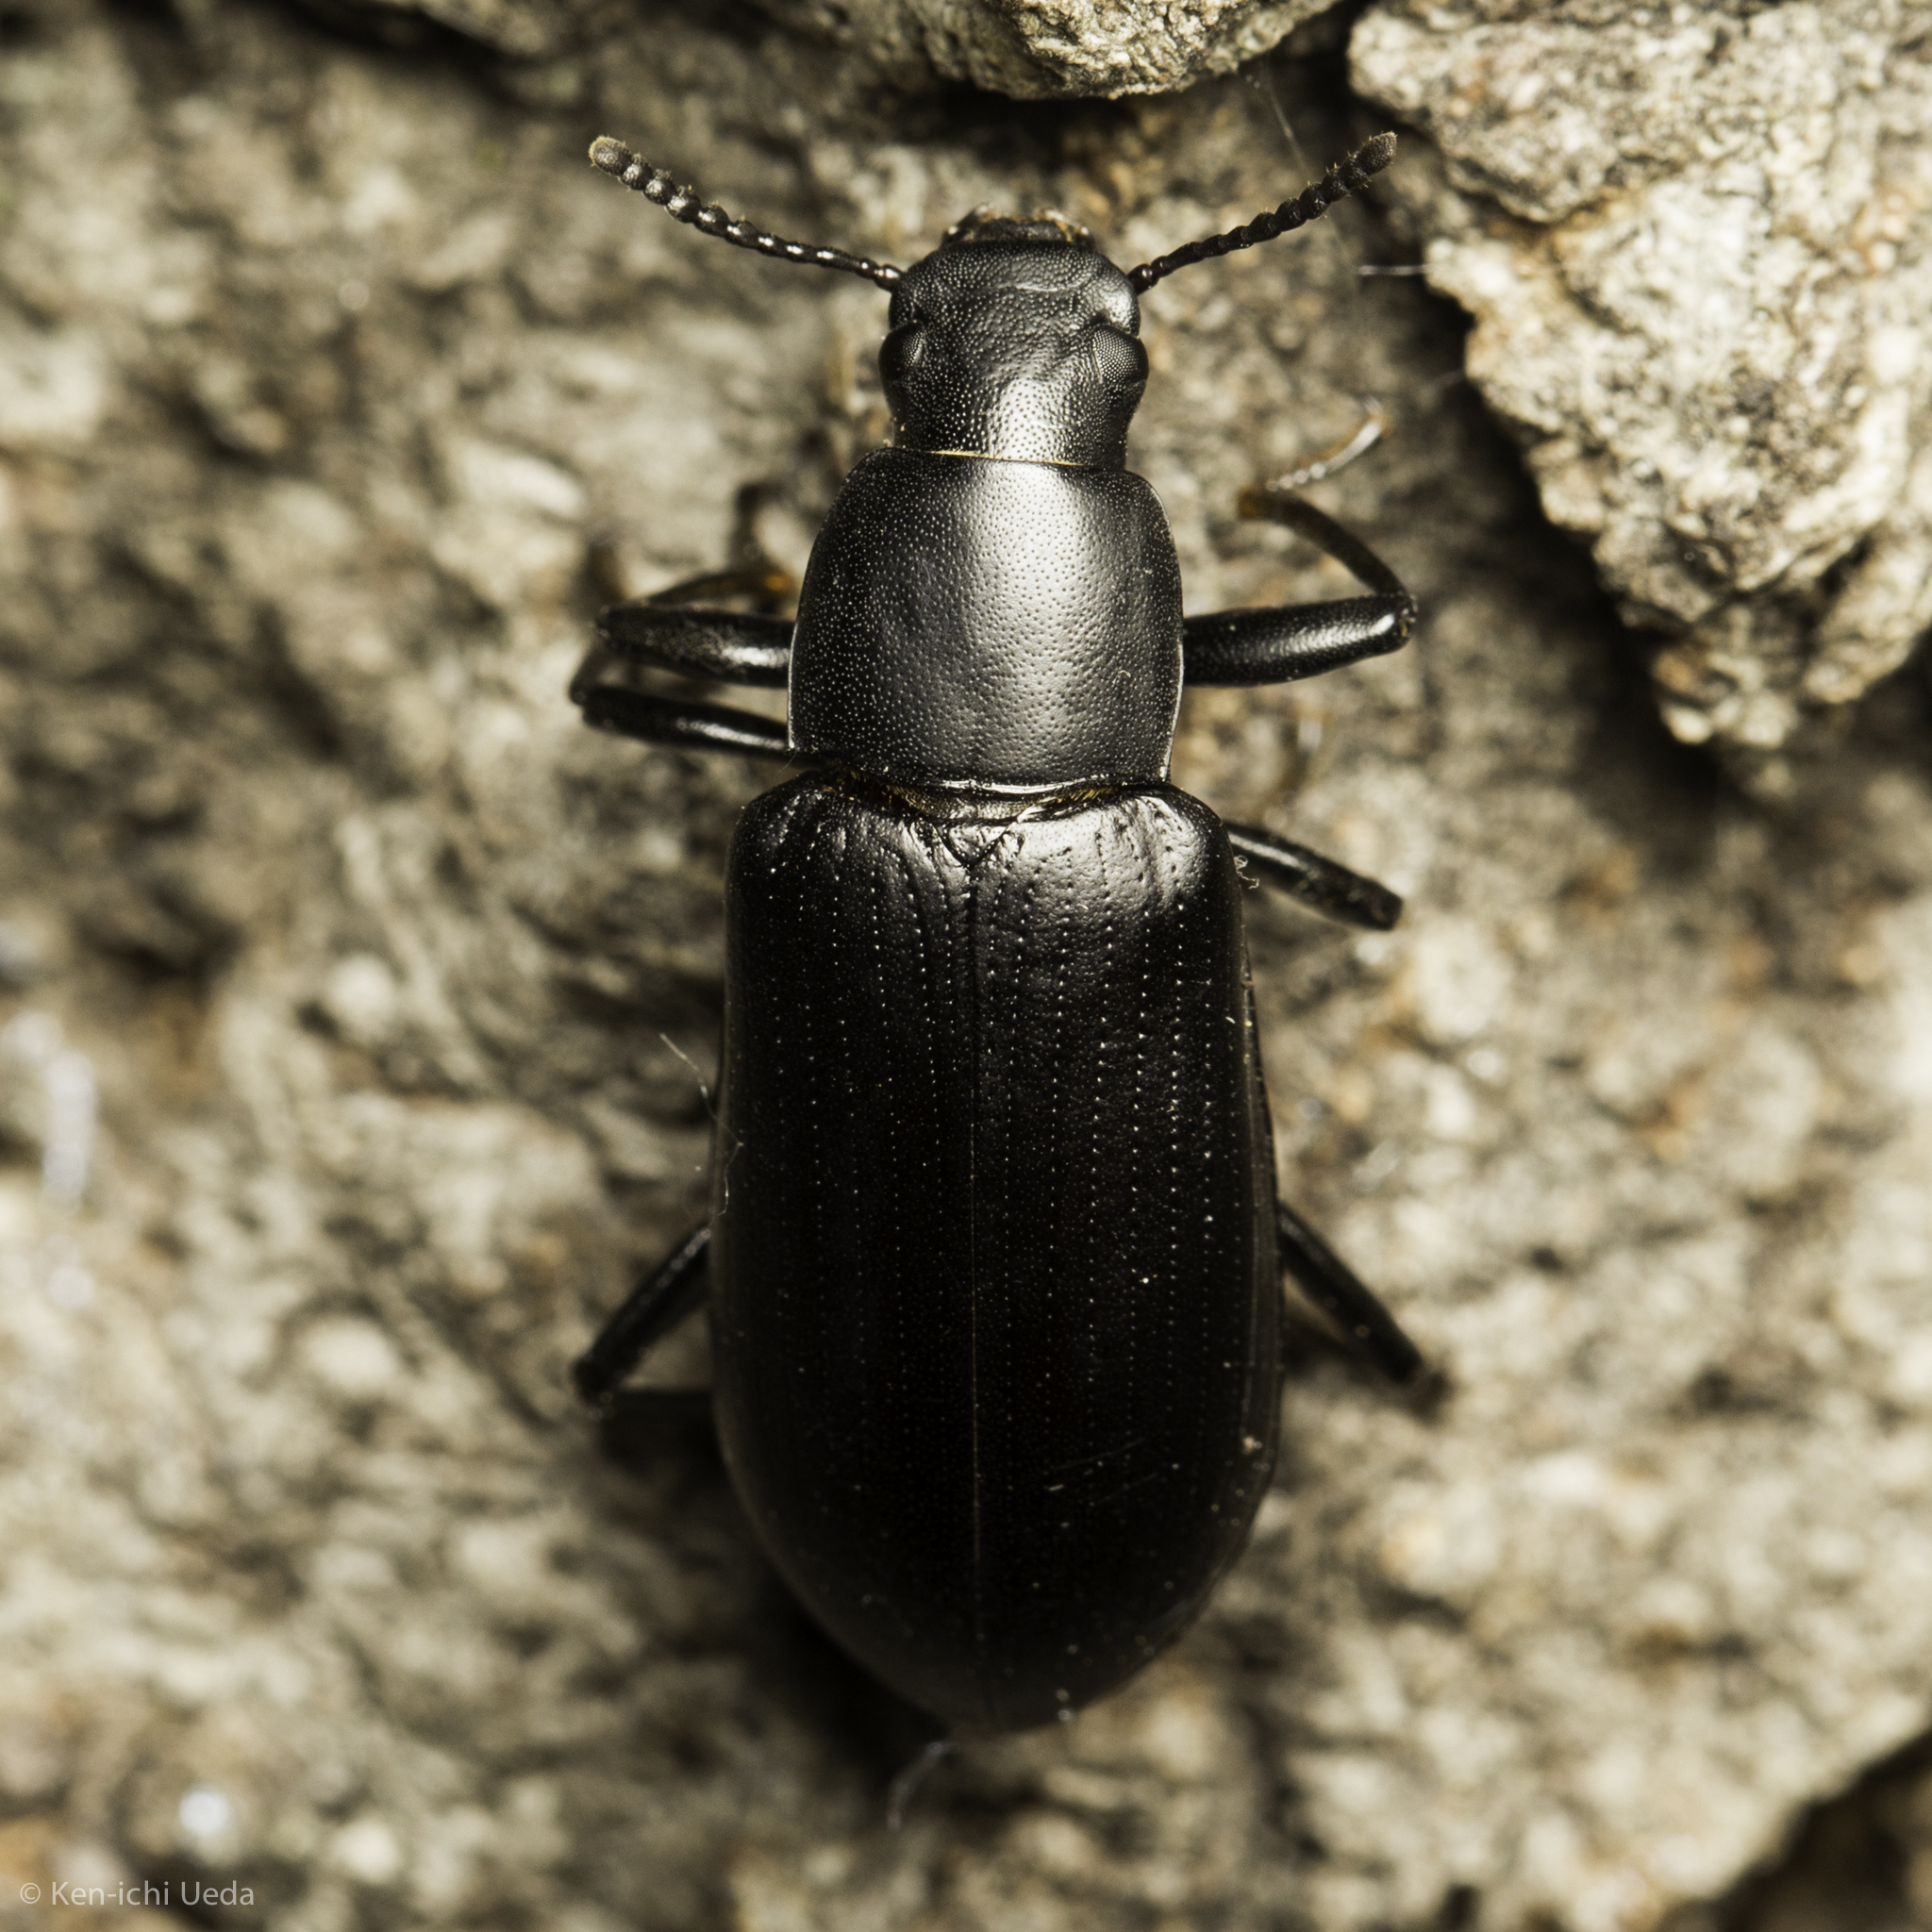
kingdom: Animalia
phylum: Arthropoda
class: Insecta
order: Coleoptera
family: Tenebrionidae
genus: Alobates
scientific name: Alobates pensylvanicus
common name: False mealworm beetle
